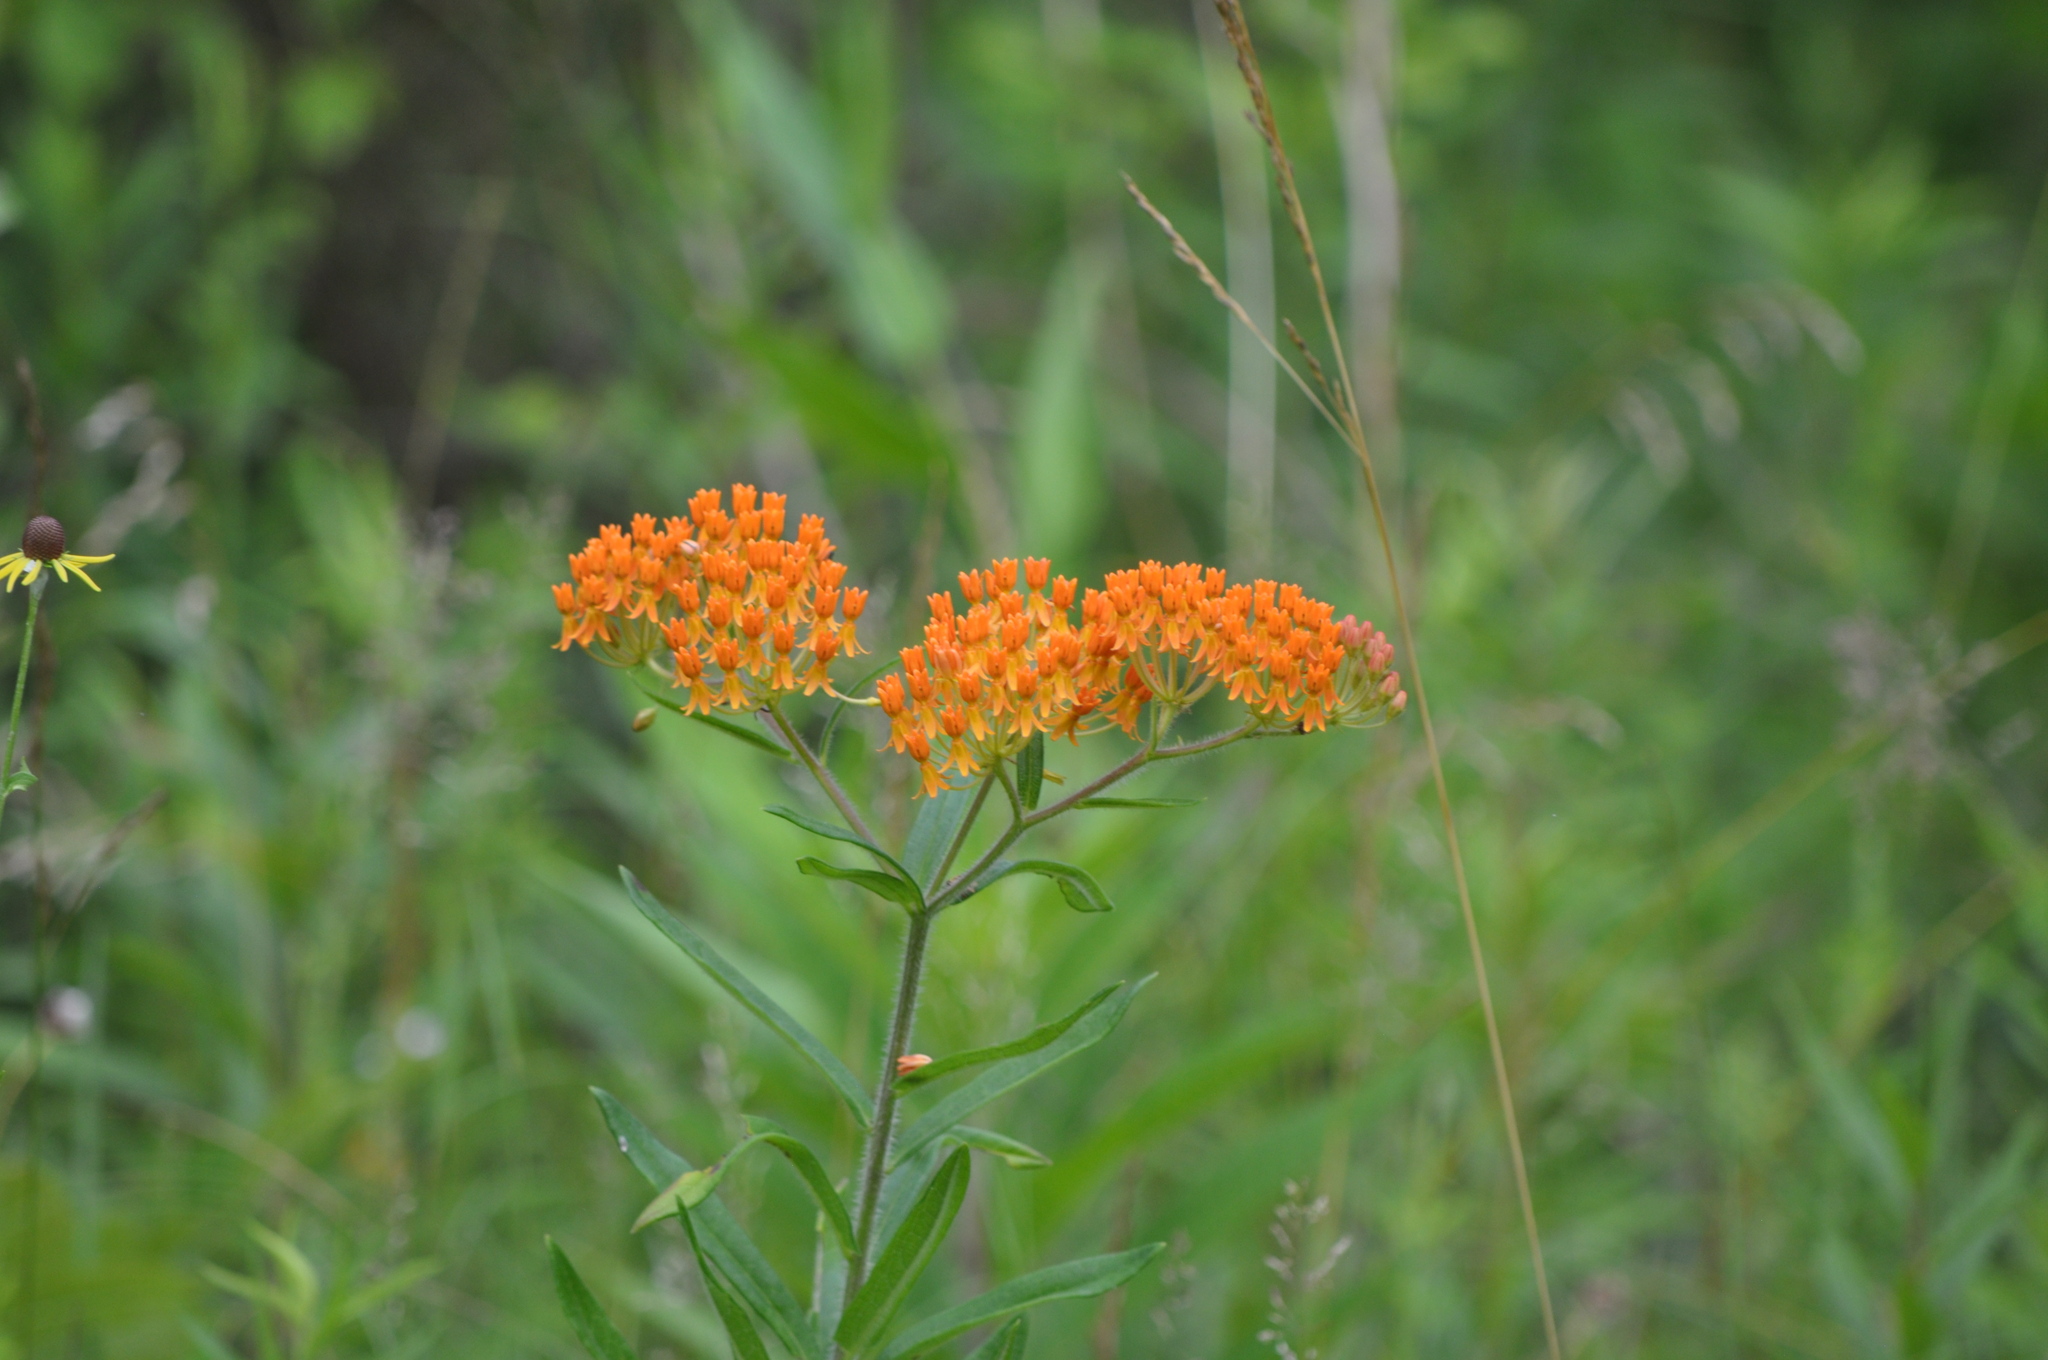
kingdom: Plantae
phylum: Tracheophyta
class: Magnoliopsida
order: Gentianales
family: Apocynaceae
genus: Asclepias
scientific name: Asclepias tuberosa
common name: Butterfly milkweed
